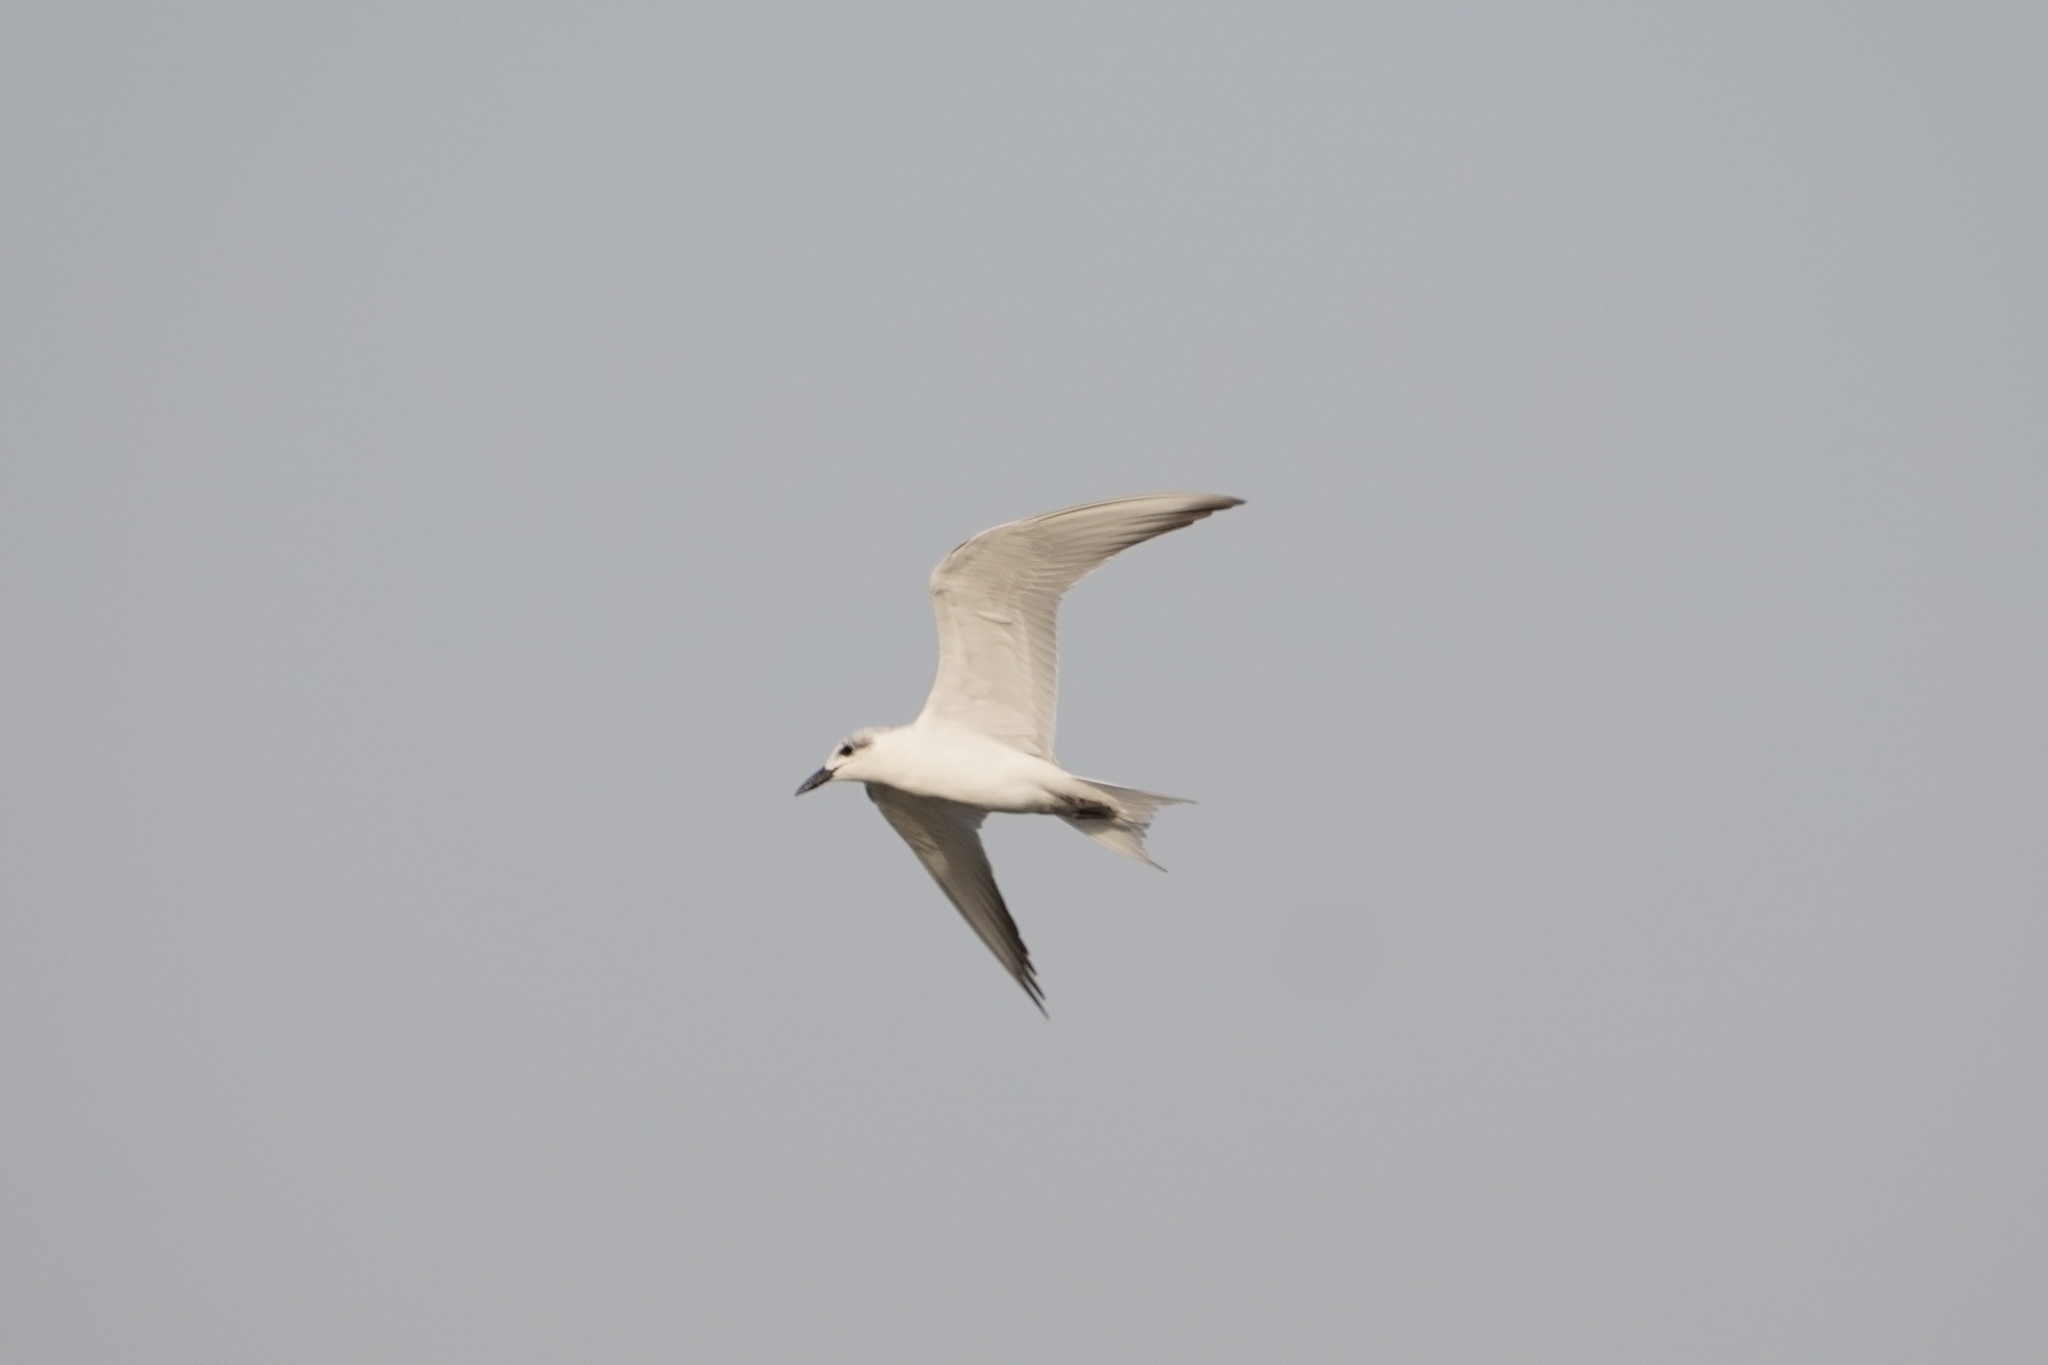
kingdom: Animalia
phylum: Chordata
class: Aves
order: Charadriiformes
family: Laridae
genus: Gelochelidon
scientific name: Gelochelidon nilotica
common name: Gull-billed tern
